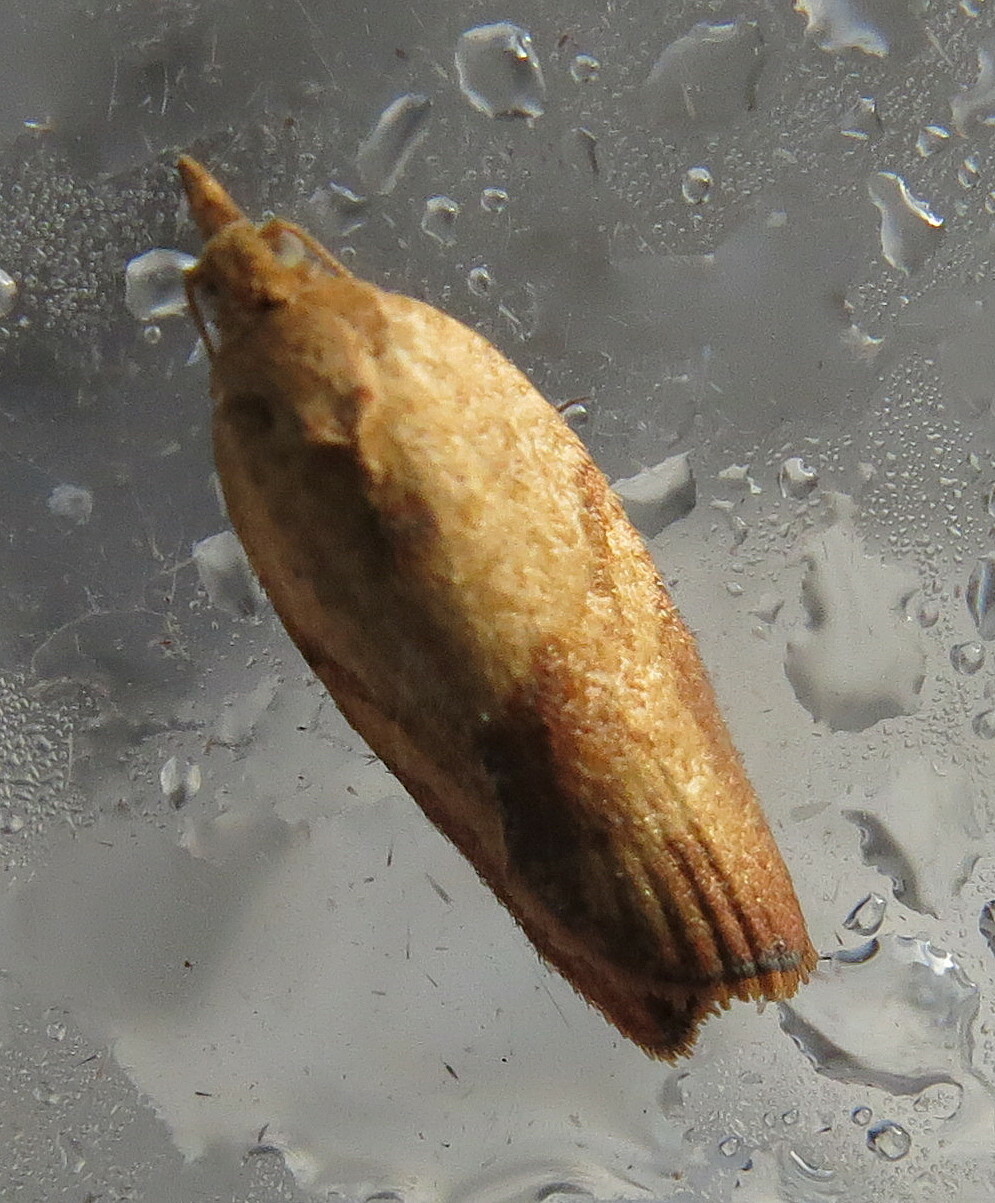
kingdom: Animalia
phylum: Arthropoda
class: Insecta
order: Lepidoptera
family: Tortricidae
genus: Epiphyas
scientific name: Epiphyas postvittana
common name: Light brown apple moth
